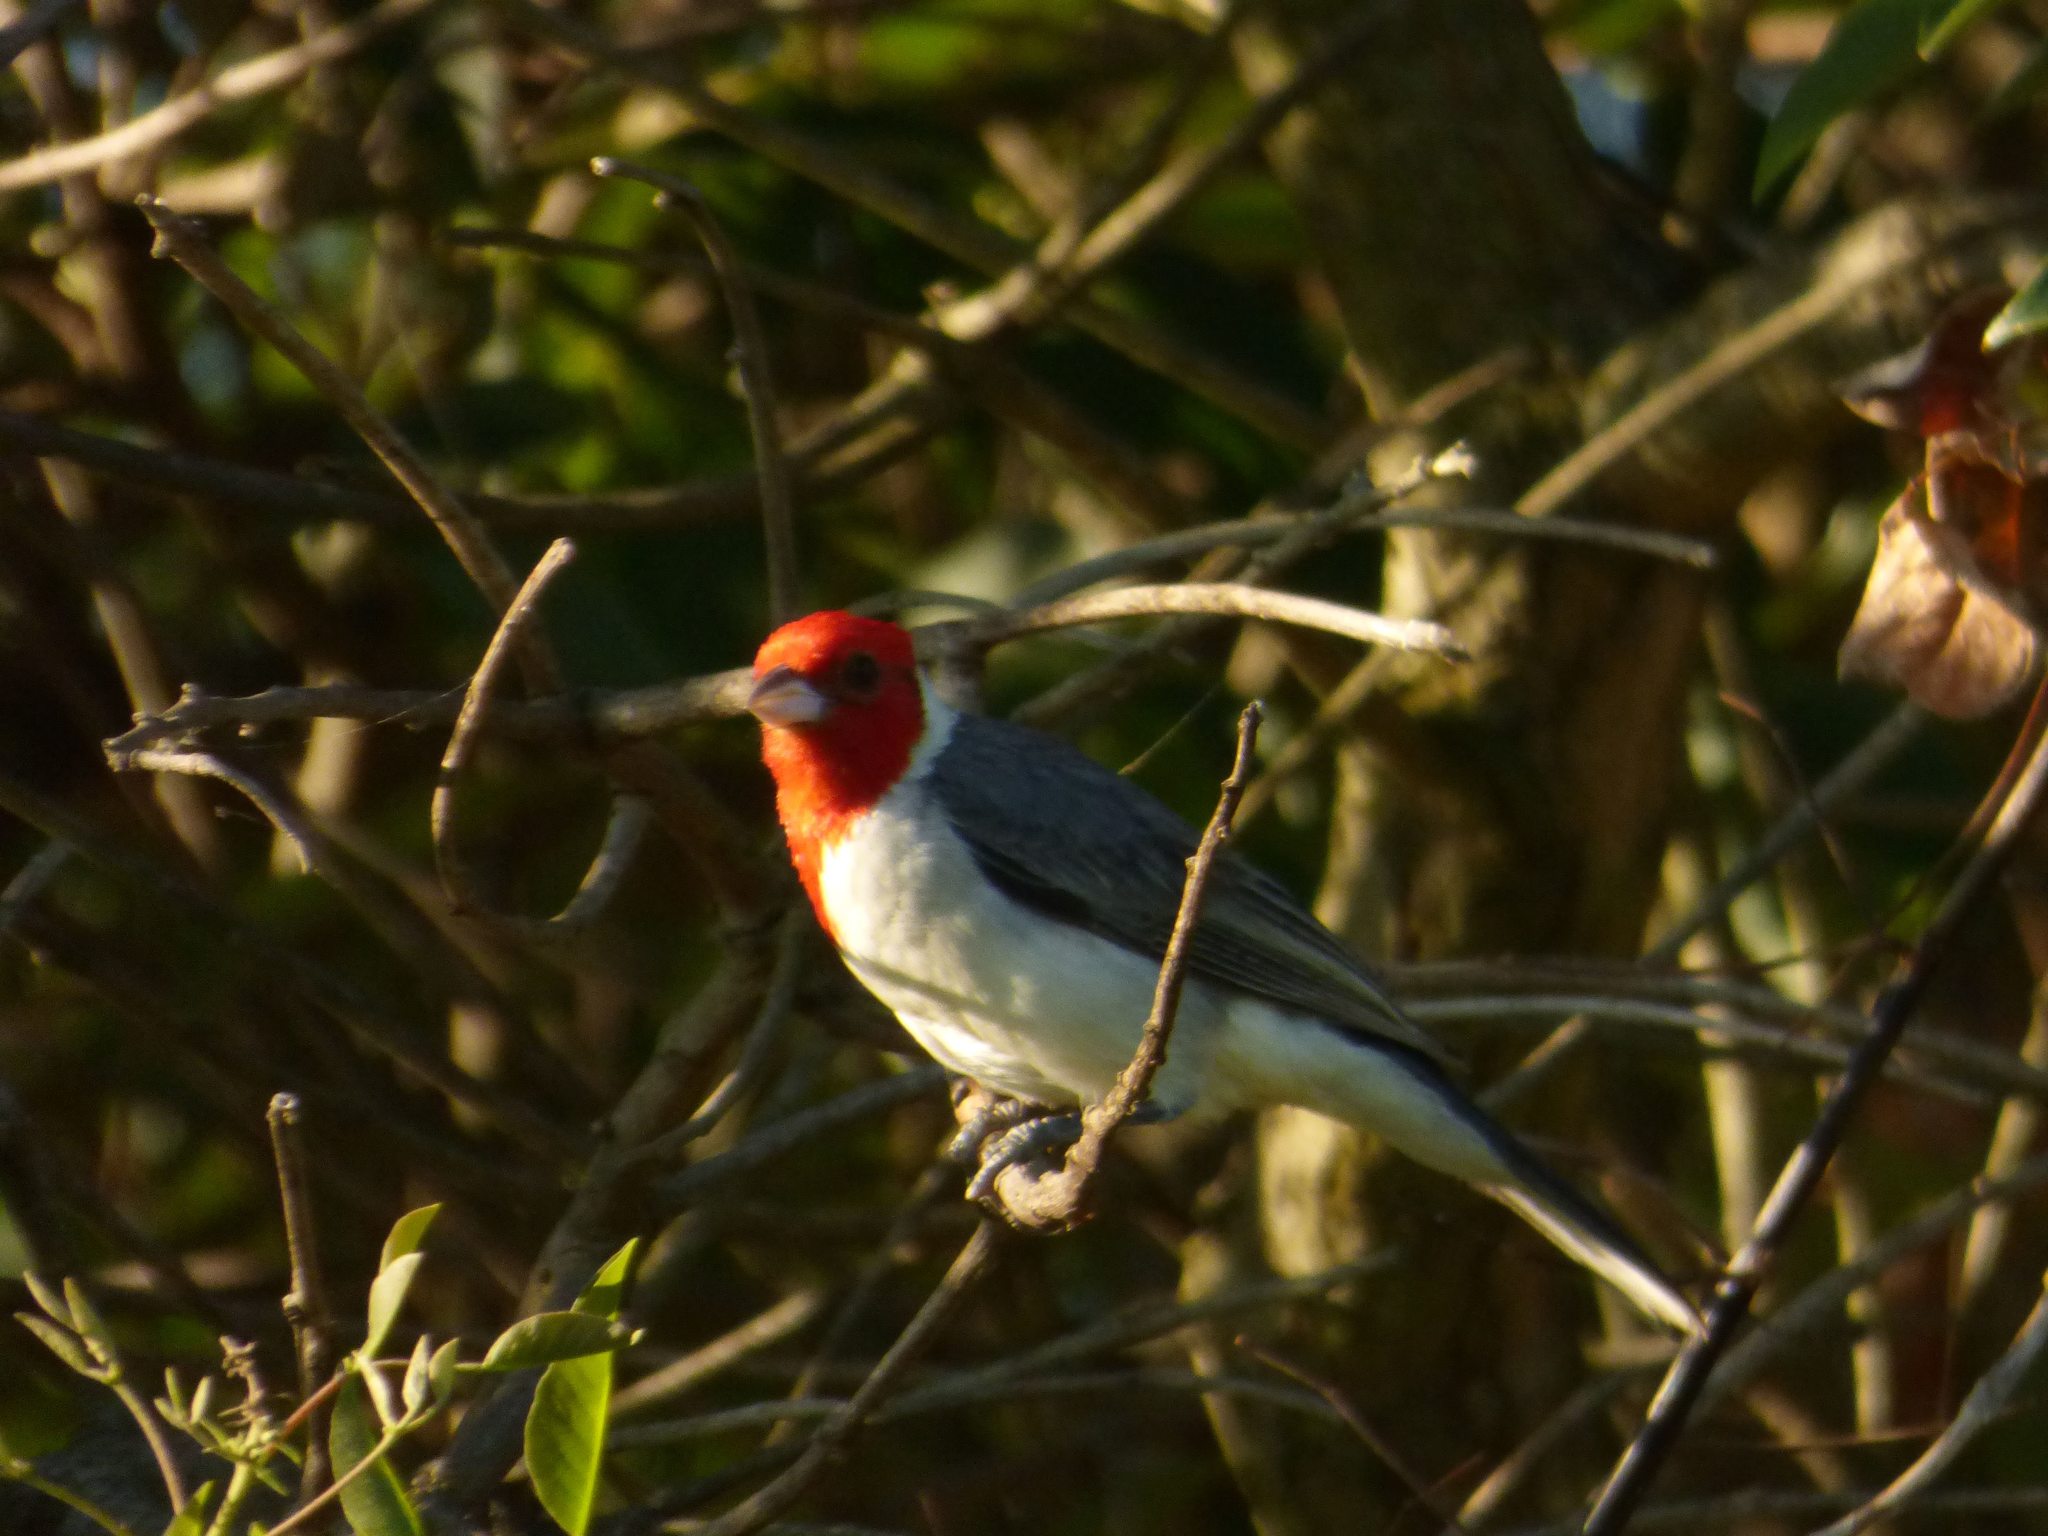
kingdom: Animalia
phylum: Chordata
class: Aves
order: Passeriformes
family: Thraupidae
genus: Paroaria
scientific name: Paroaria coronata
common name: Red-crested cardinal
